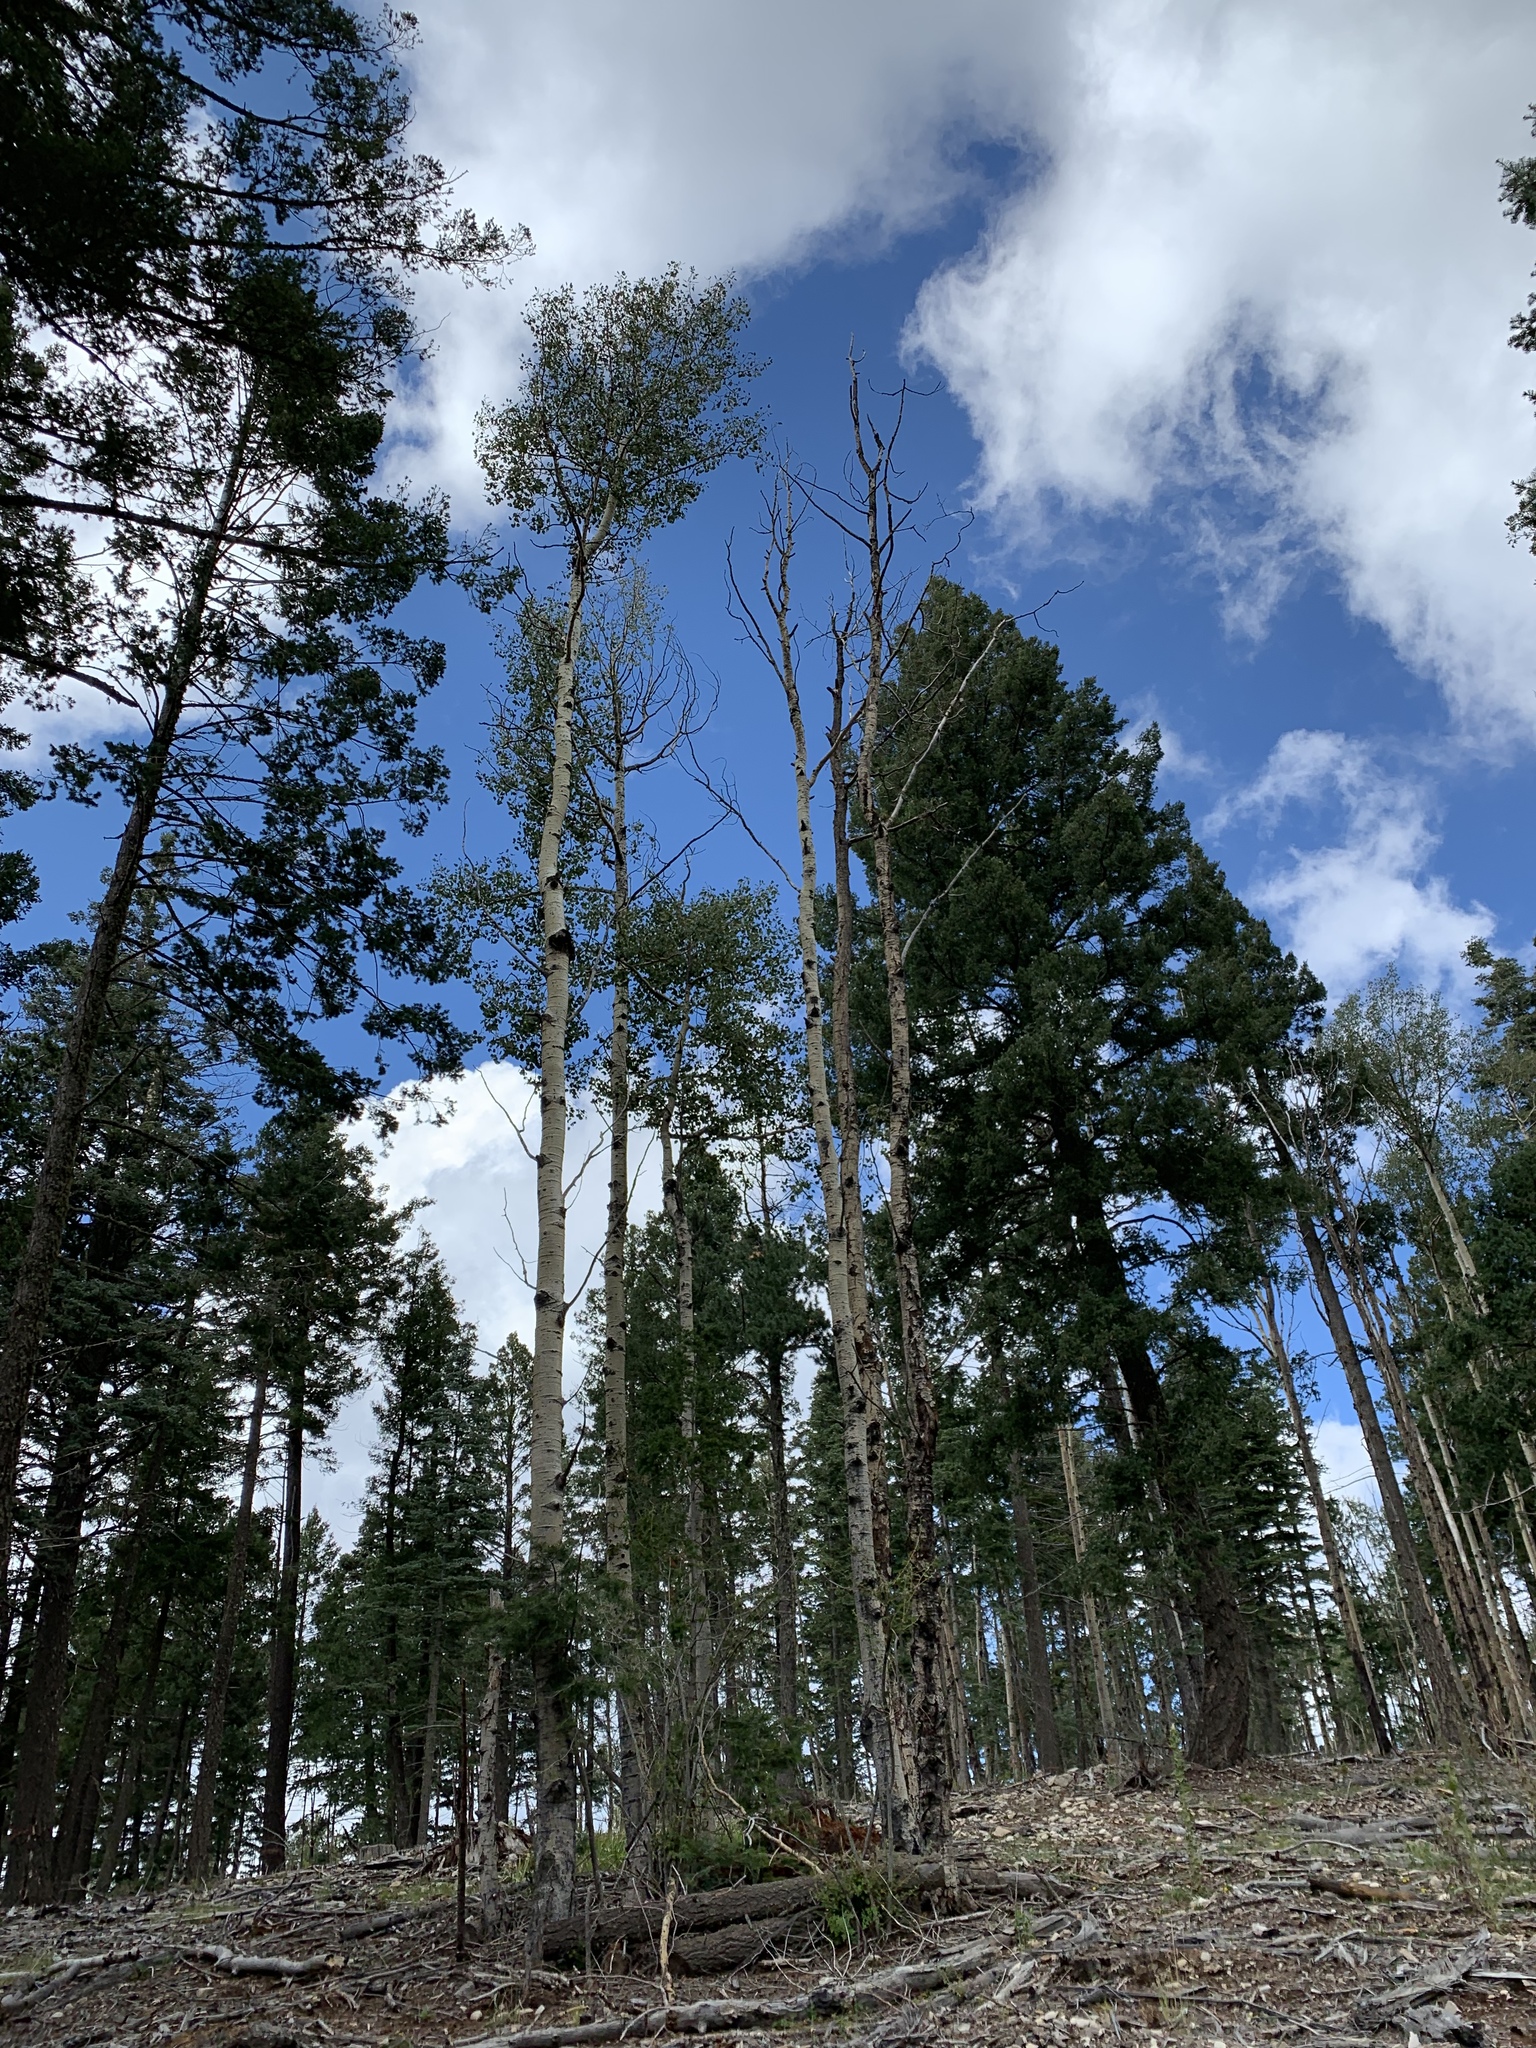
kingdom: Plantae
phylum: Tracheophyta
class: Magnoliopsida
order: Malpighiales
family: Salicaceae
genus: Populus
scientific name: Populus tremuloides
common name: Quaking aspen
